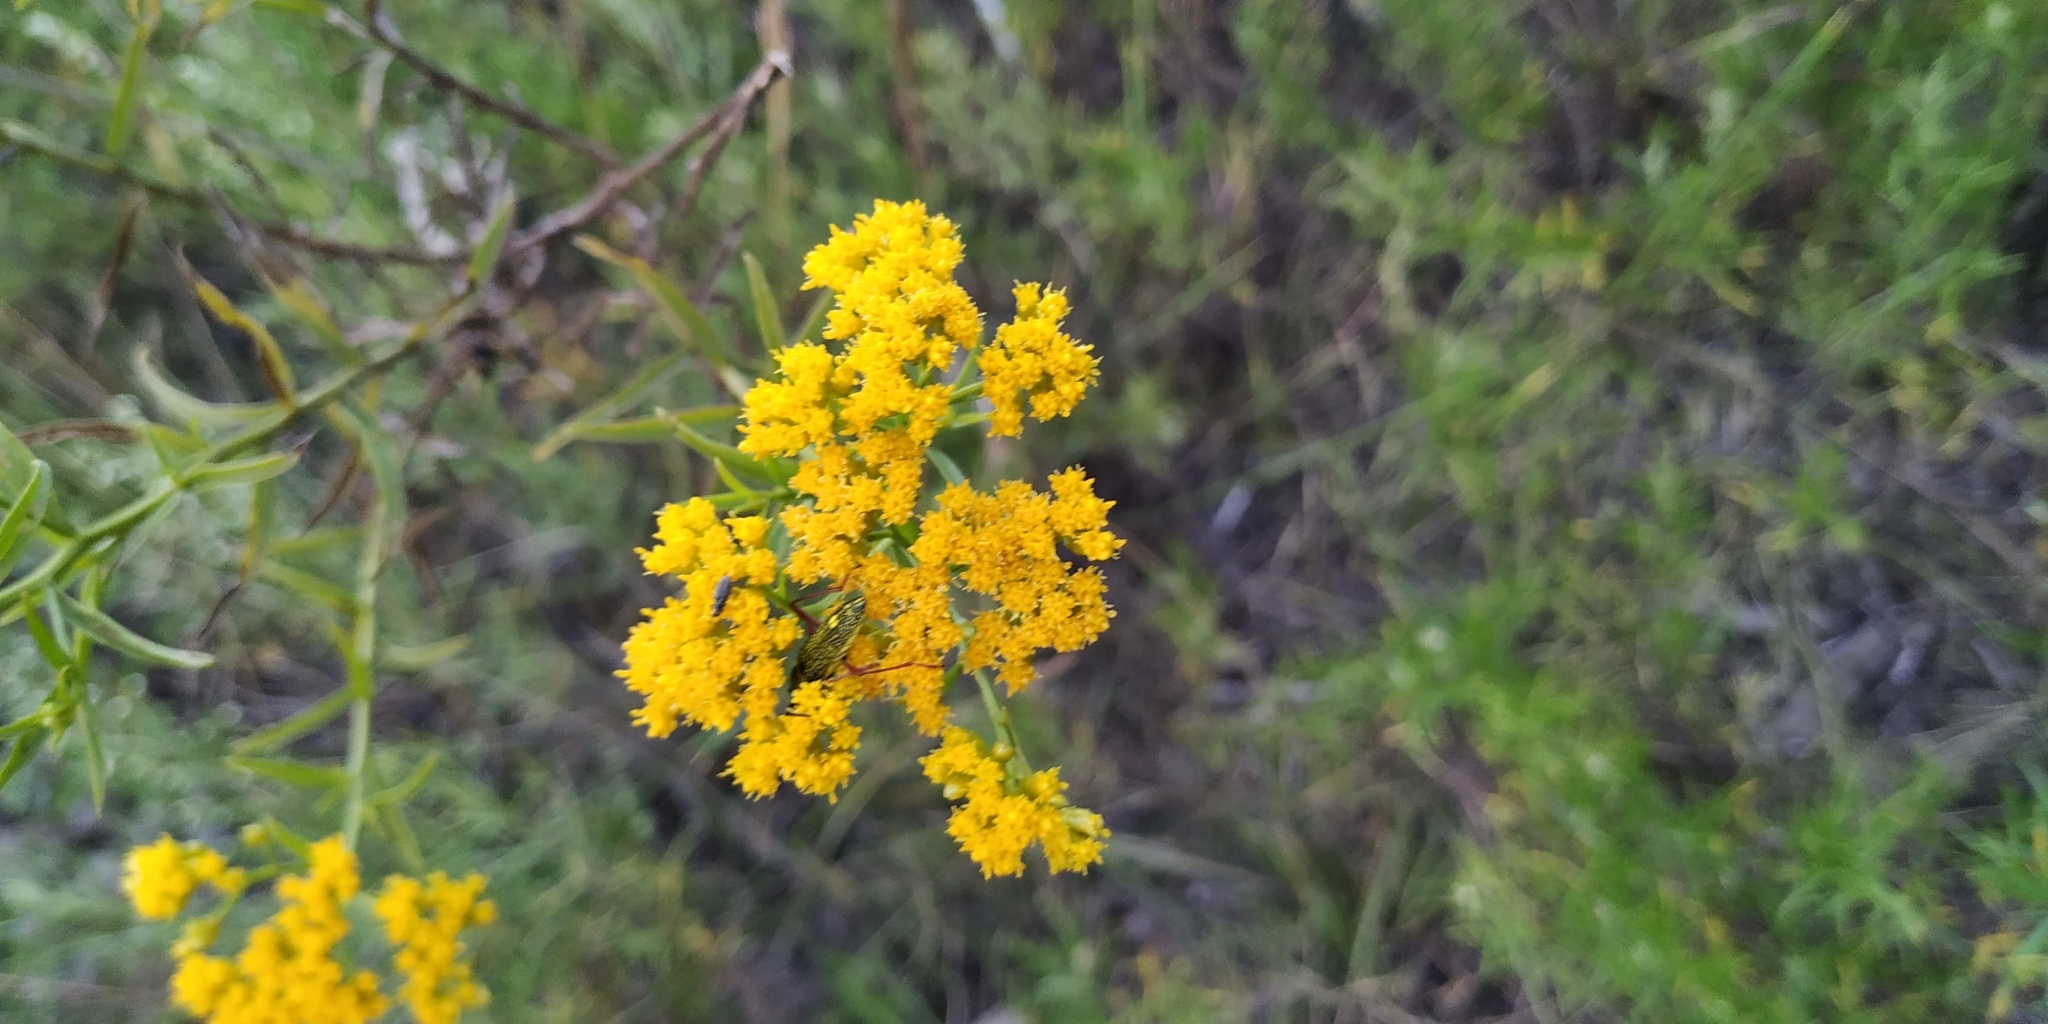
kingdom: Plantae
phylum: Tracheophyta
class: Magnoliopsida
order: Asterales
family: Asteraceae
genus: Gymnosperma
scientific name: Gymnosperma glutinosum
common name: Gumhead
